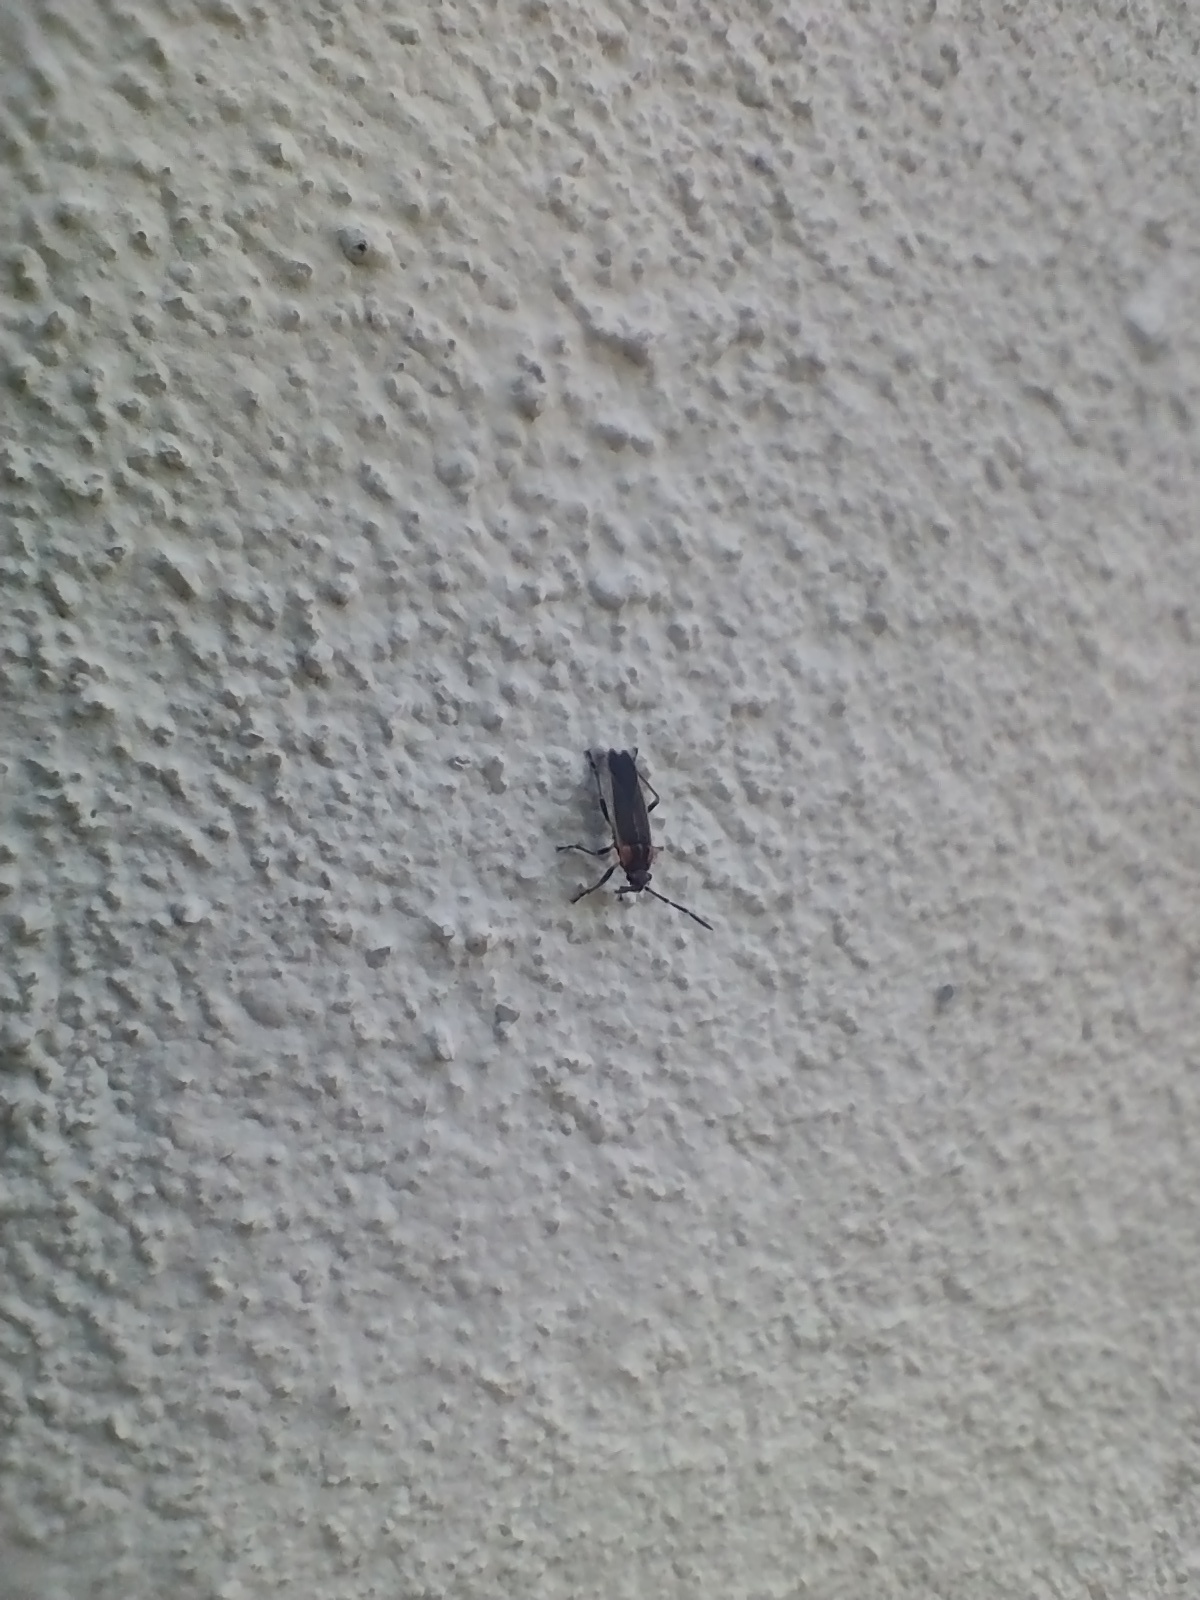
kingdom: Animalia
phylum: Arthropoda
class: Insecta
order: Hemiptera
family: Lygaeidae
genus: Acroleucus
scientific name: Acroleucus coxalis
